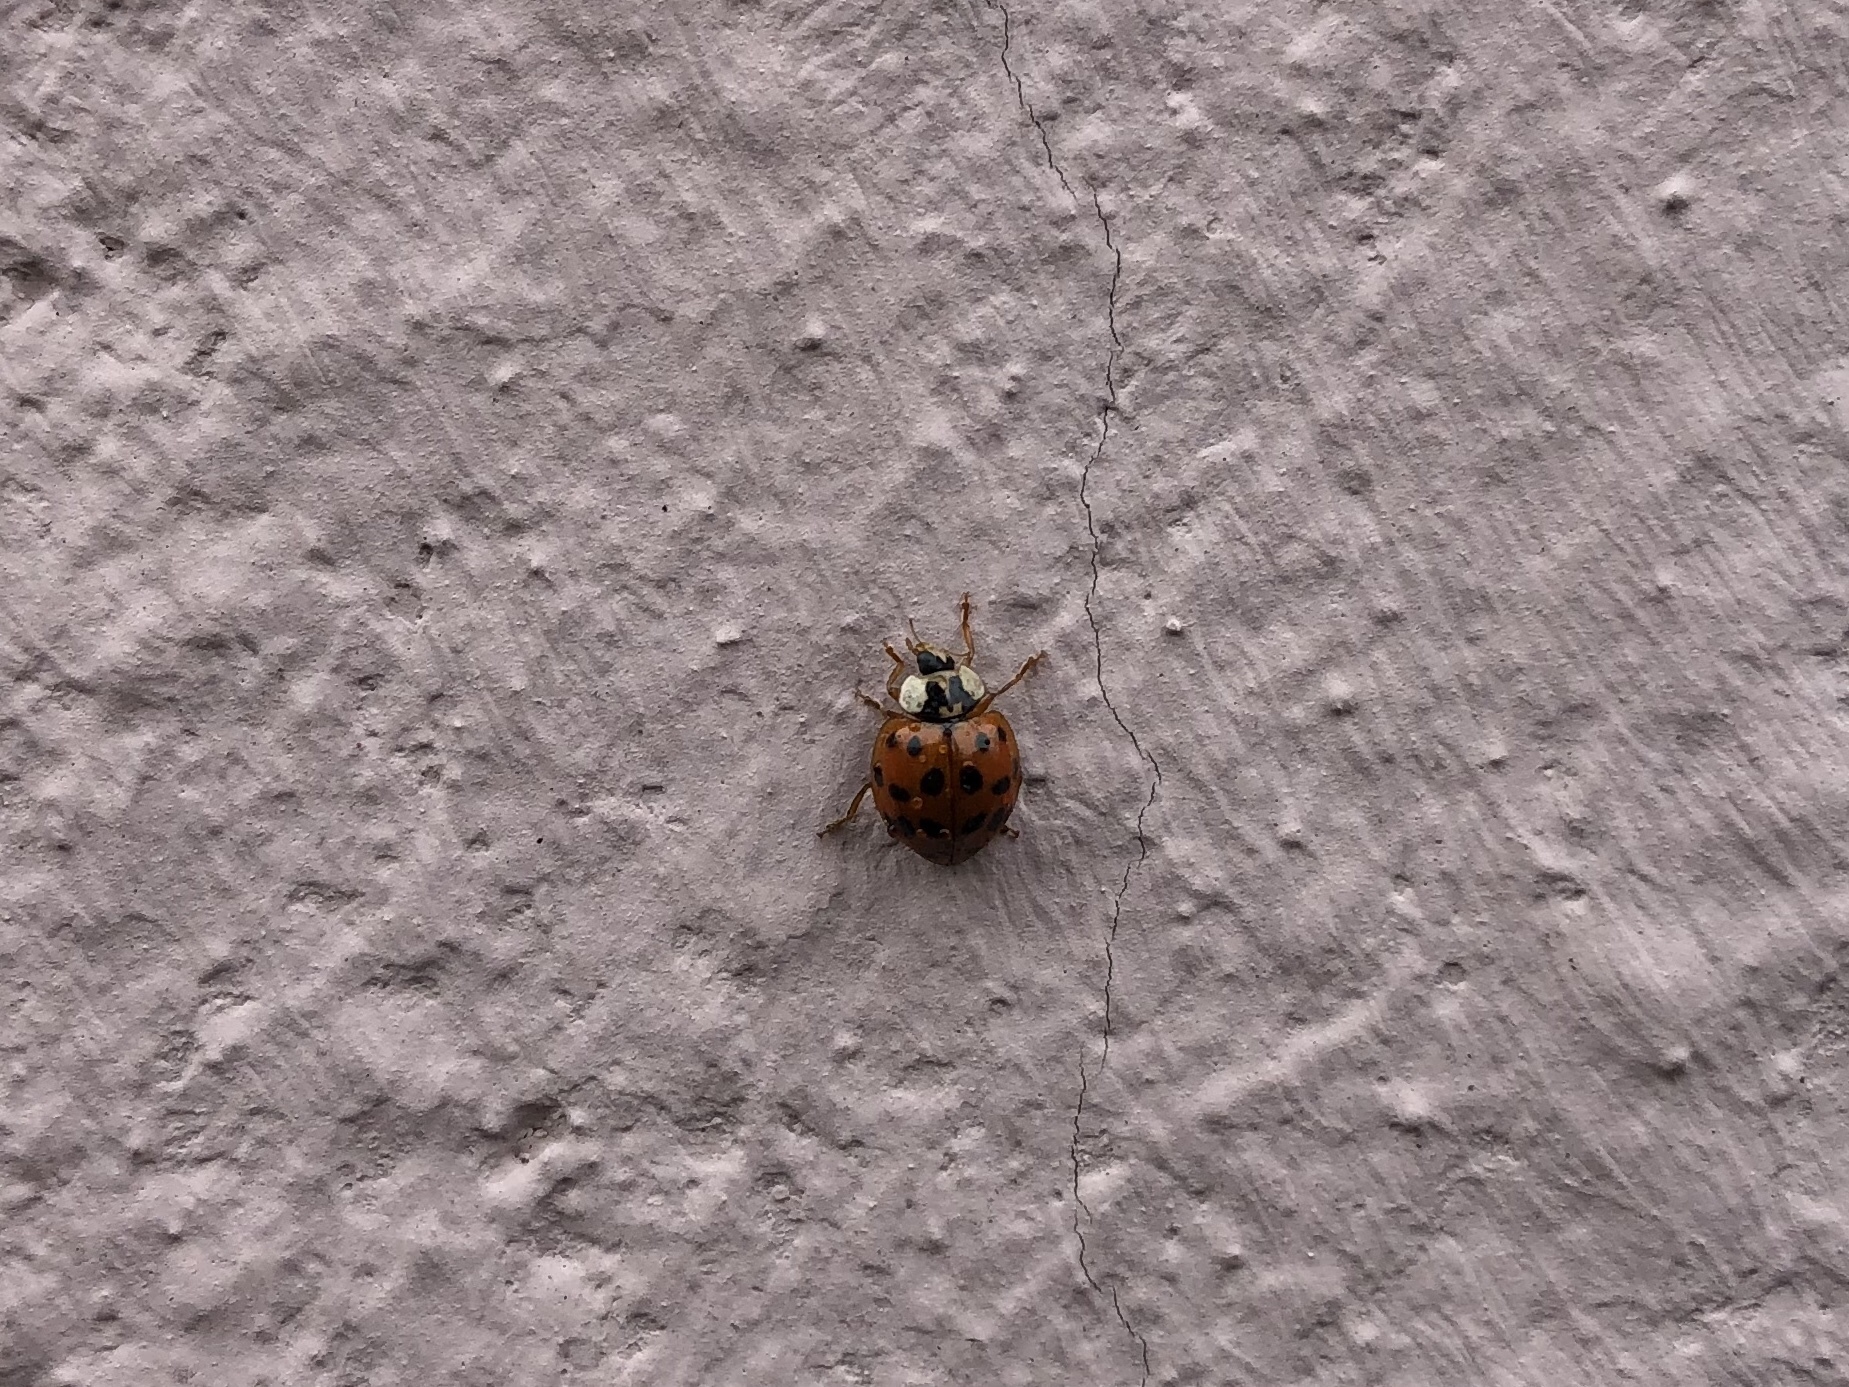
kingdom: Animalia
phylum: Arthropoda
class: Insecta
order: Coleoptera
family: Coccinellidae
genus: Harmonia
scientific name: Harmonia axyridis
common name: Harlequin ladybird
